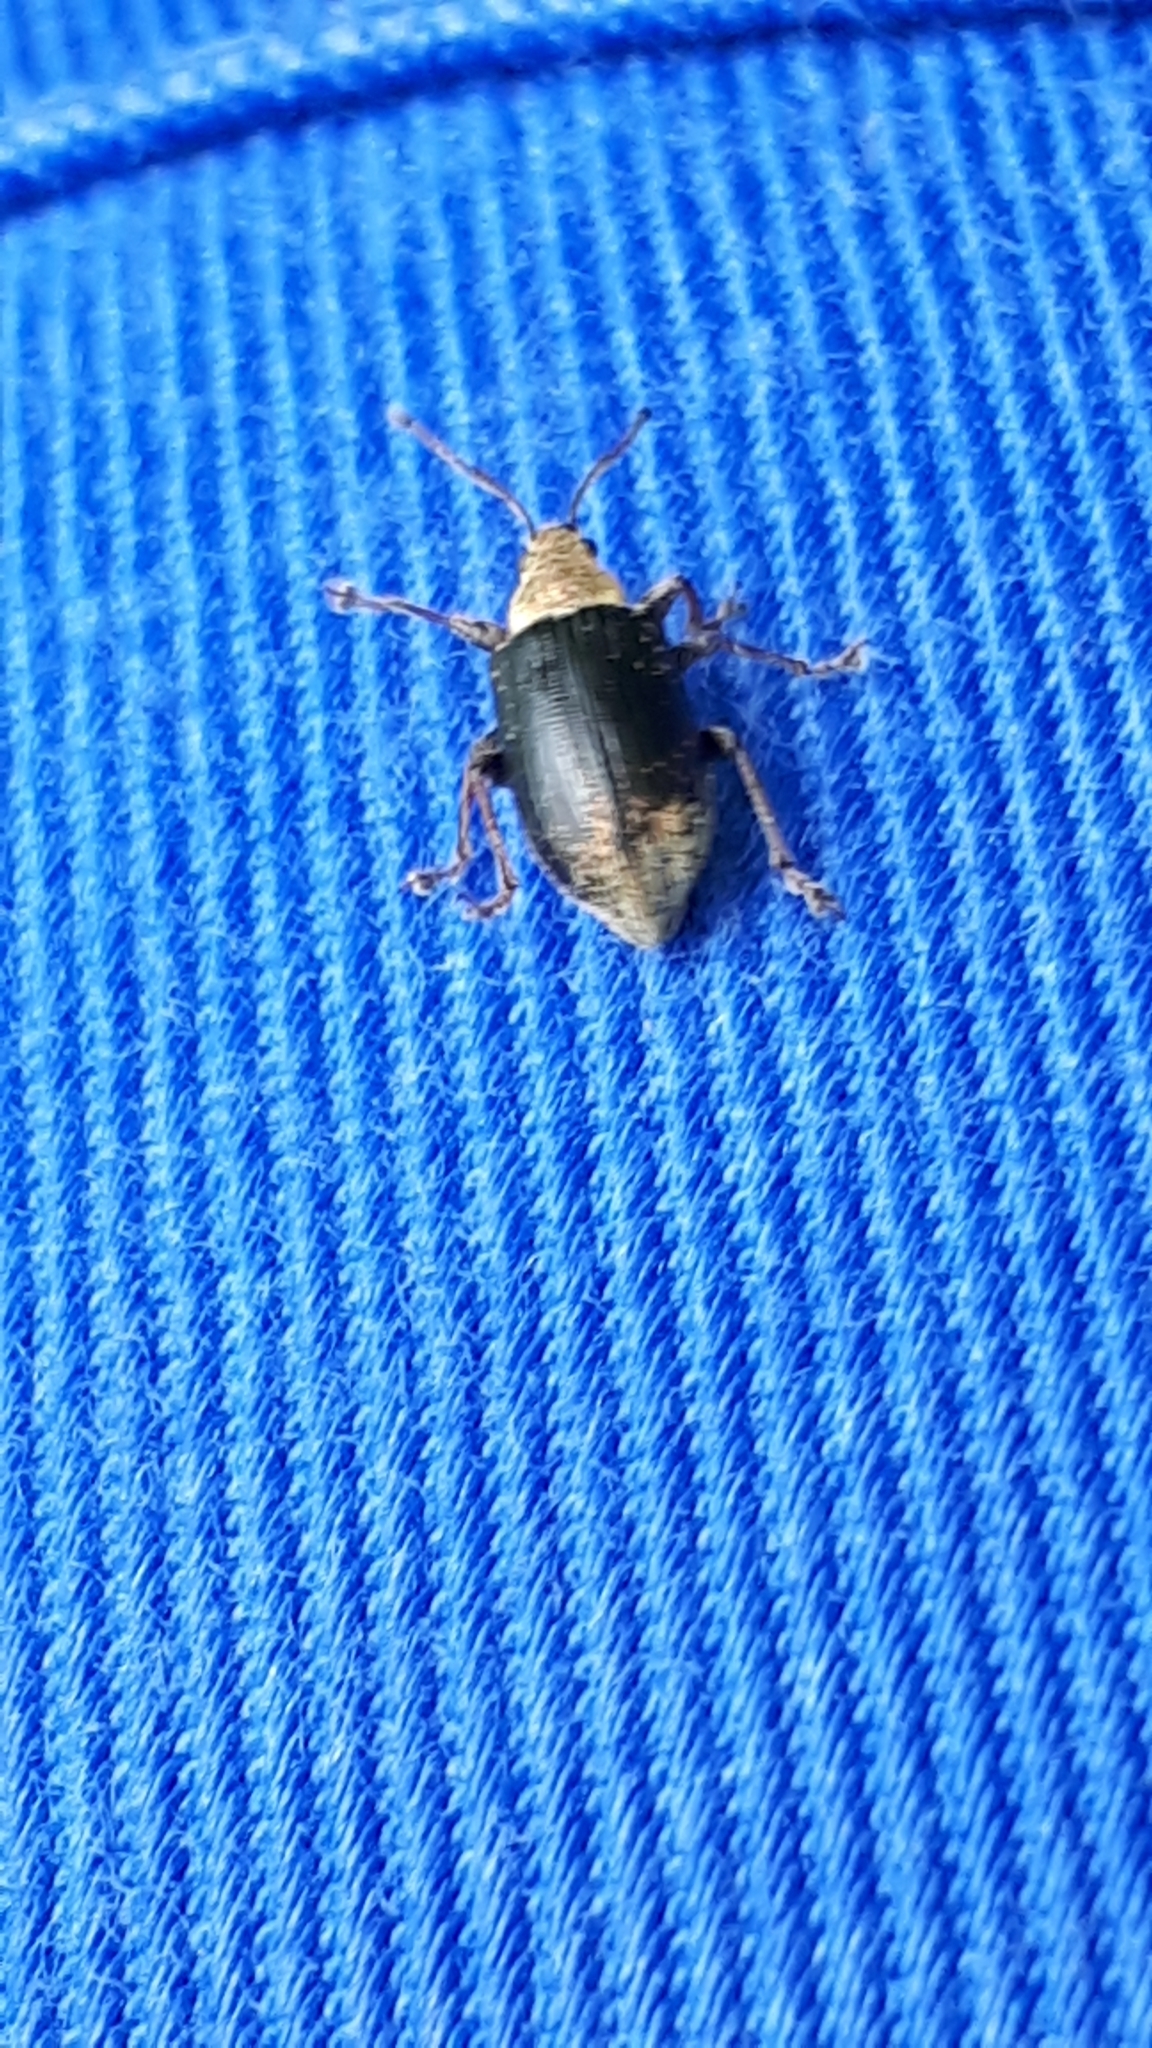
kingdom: Animalia
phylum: Arthropoda
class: Insecta
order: Coleoptera
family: Curculionidae
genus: Phyllobius
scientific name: Phyllobius pyri
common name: Common leaf weevil
